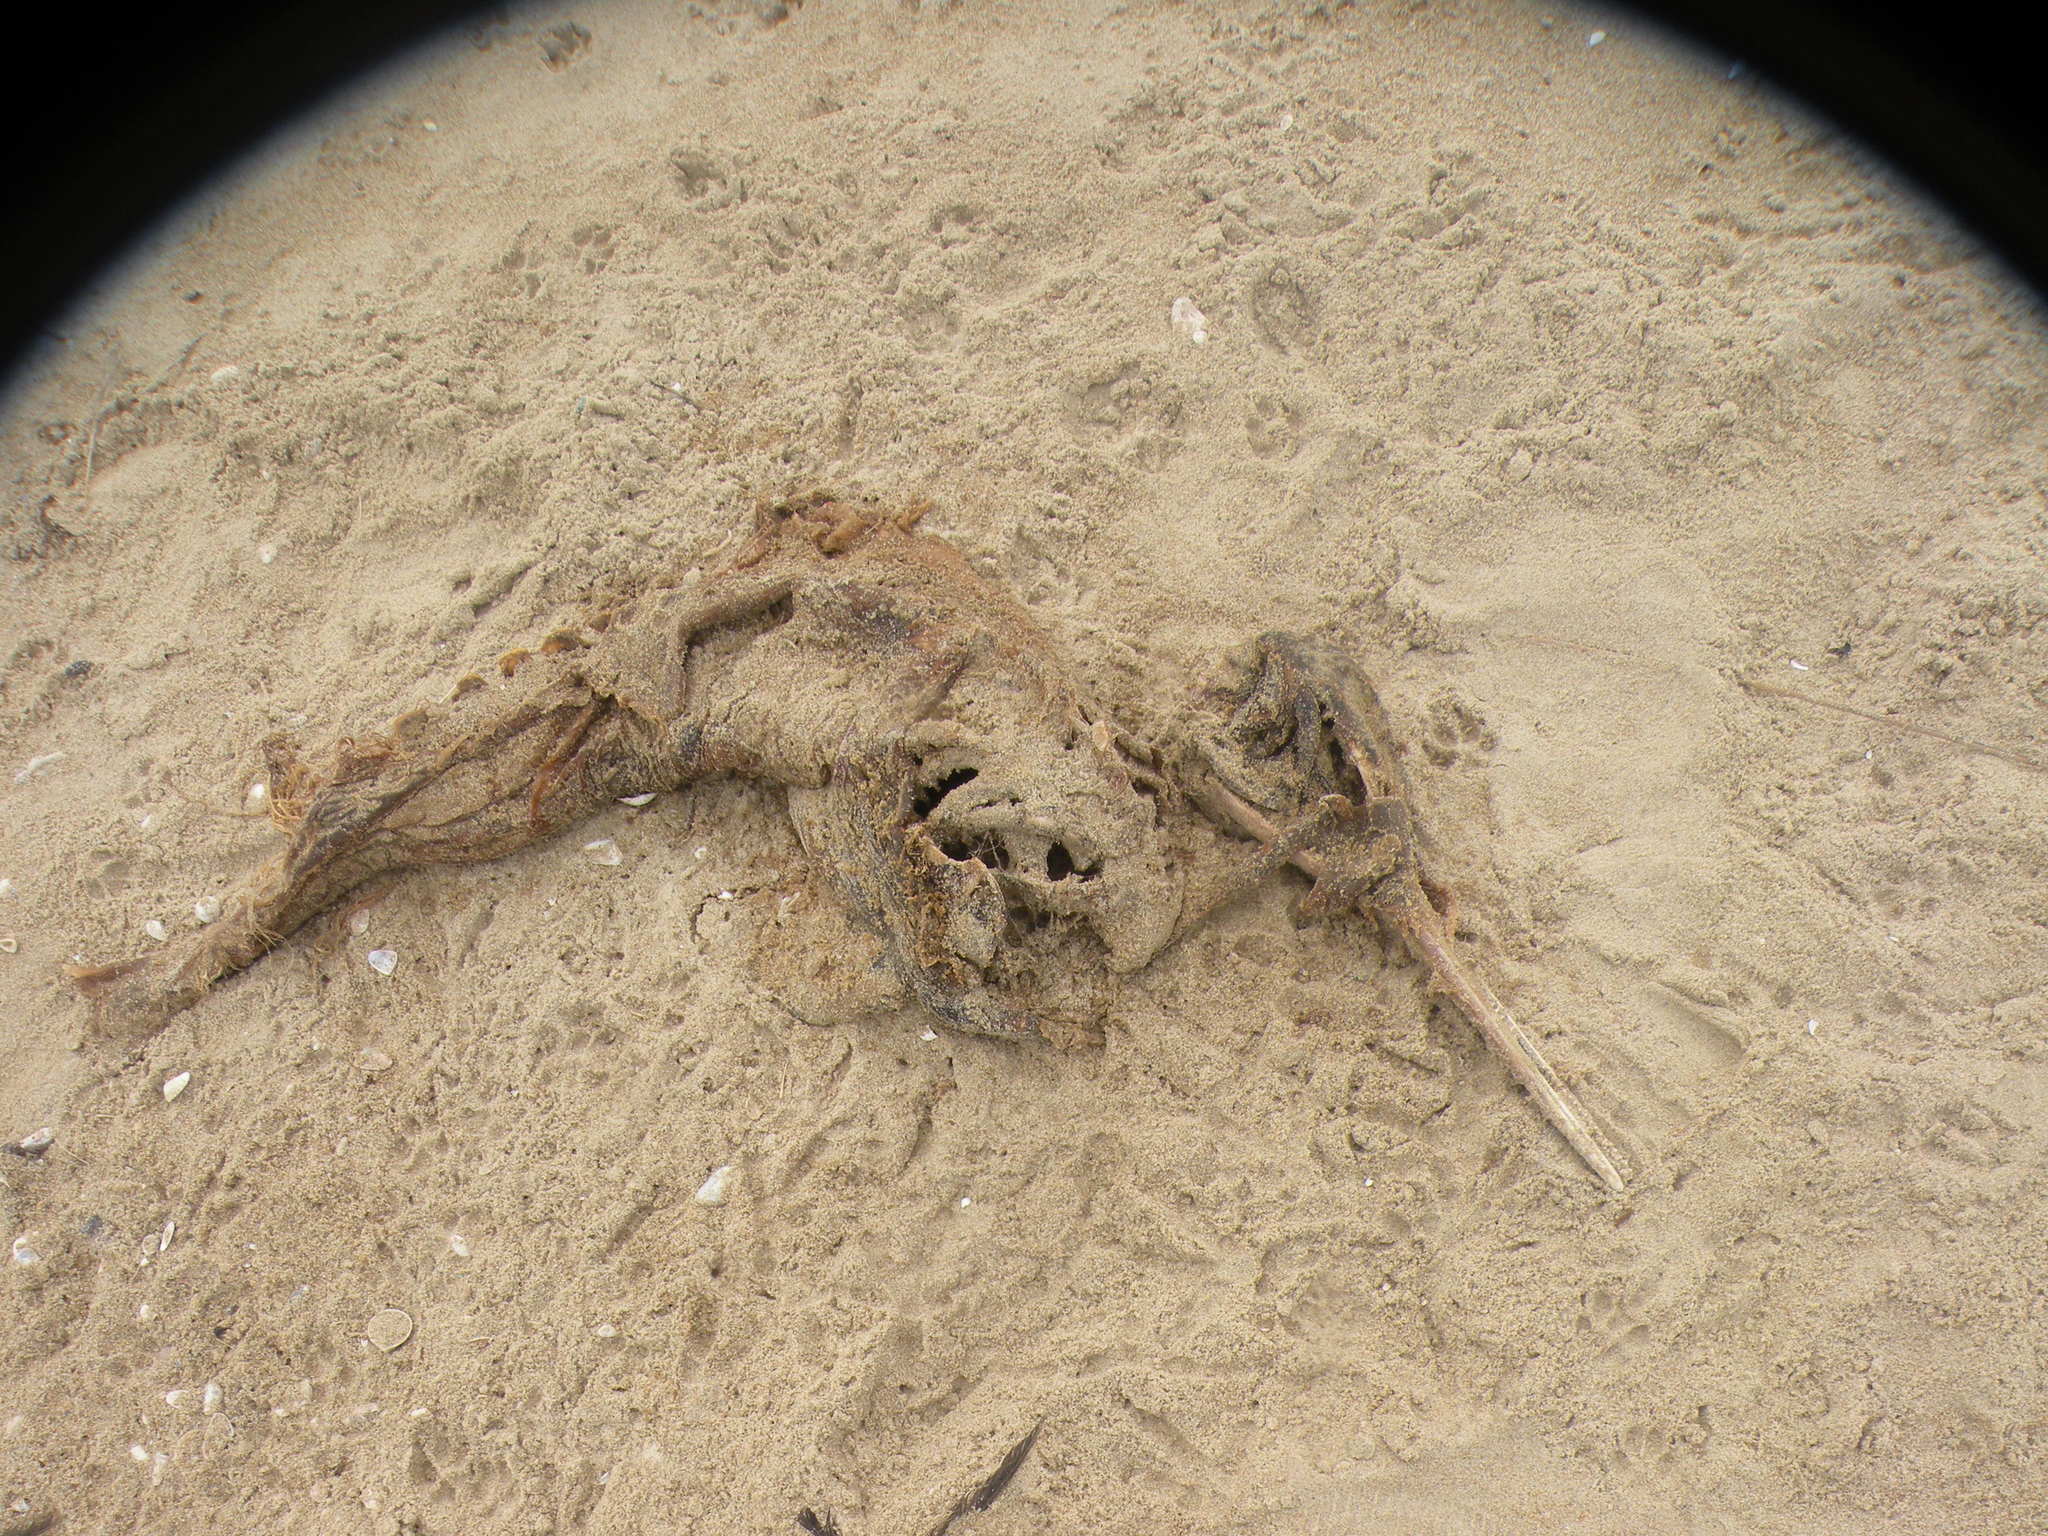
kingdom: Animalia
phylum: Chordata
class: Mammalia
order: Cetacea
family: Pontoporiidae
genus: Pontoporia
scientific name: Pontoporia blainvillei
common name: Franciscana
